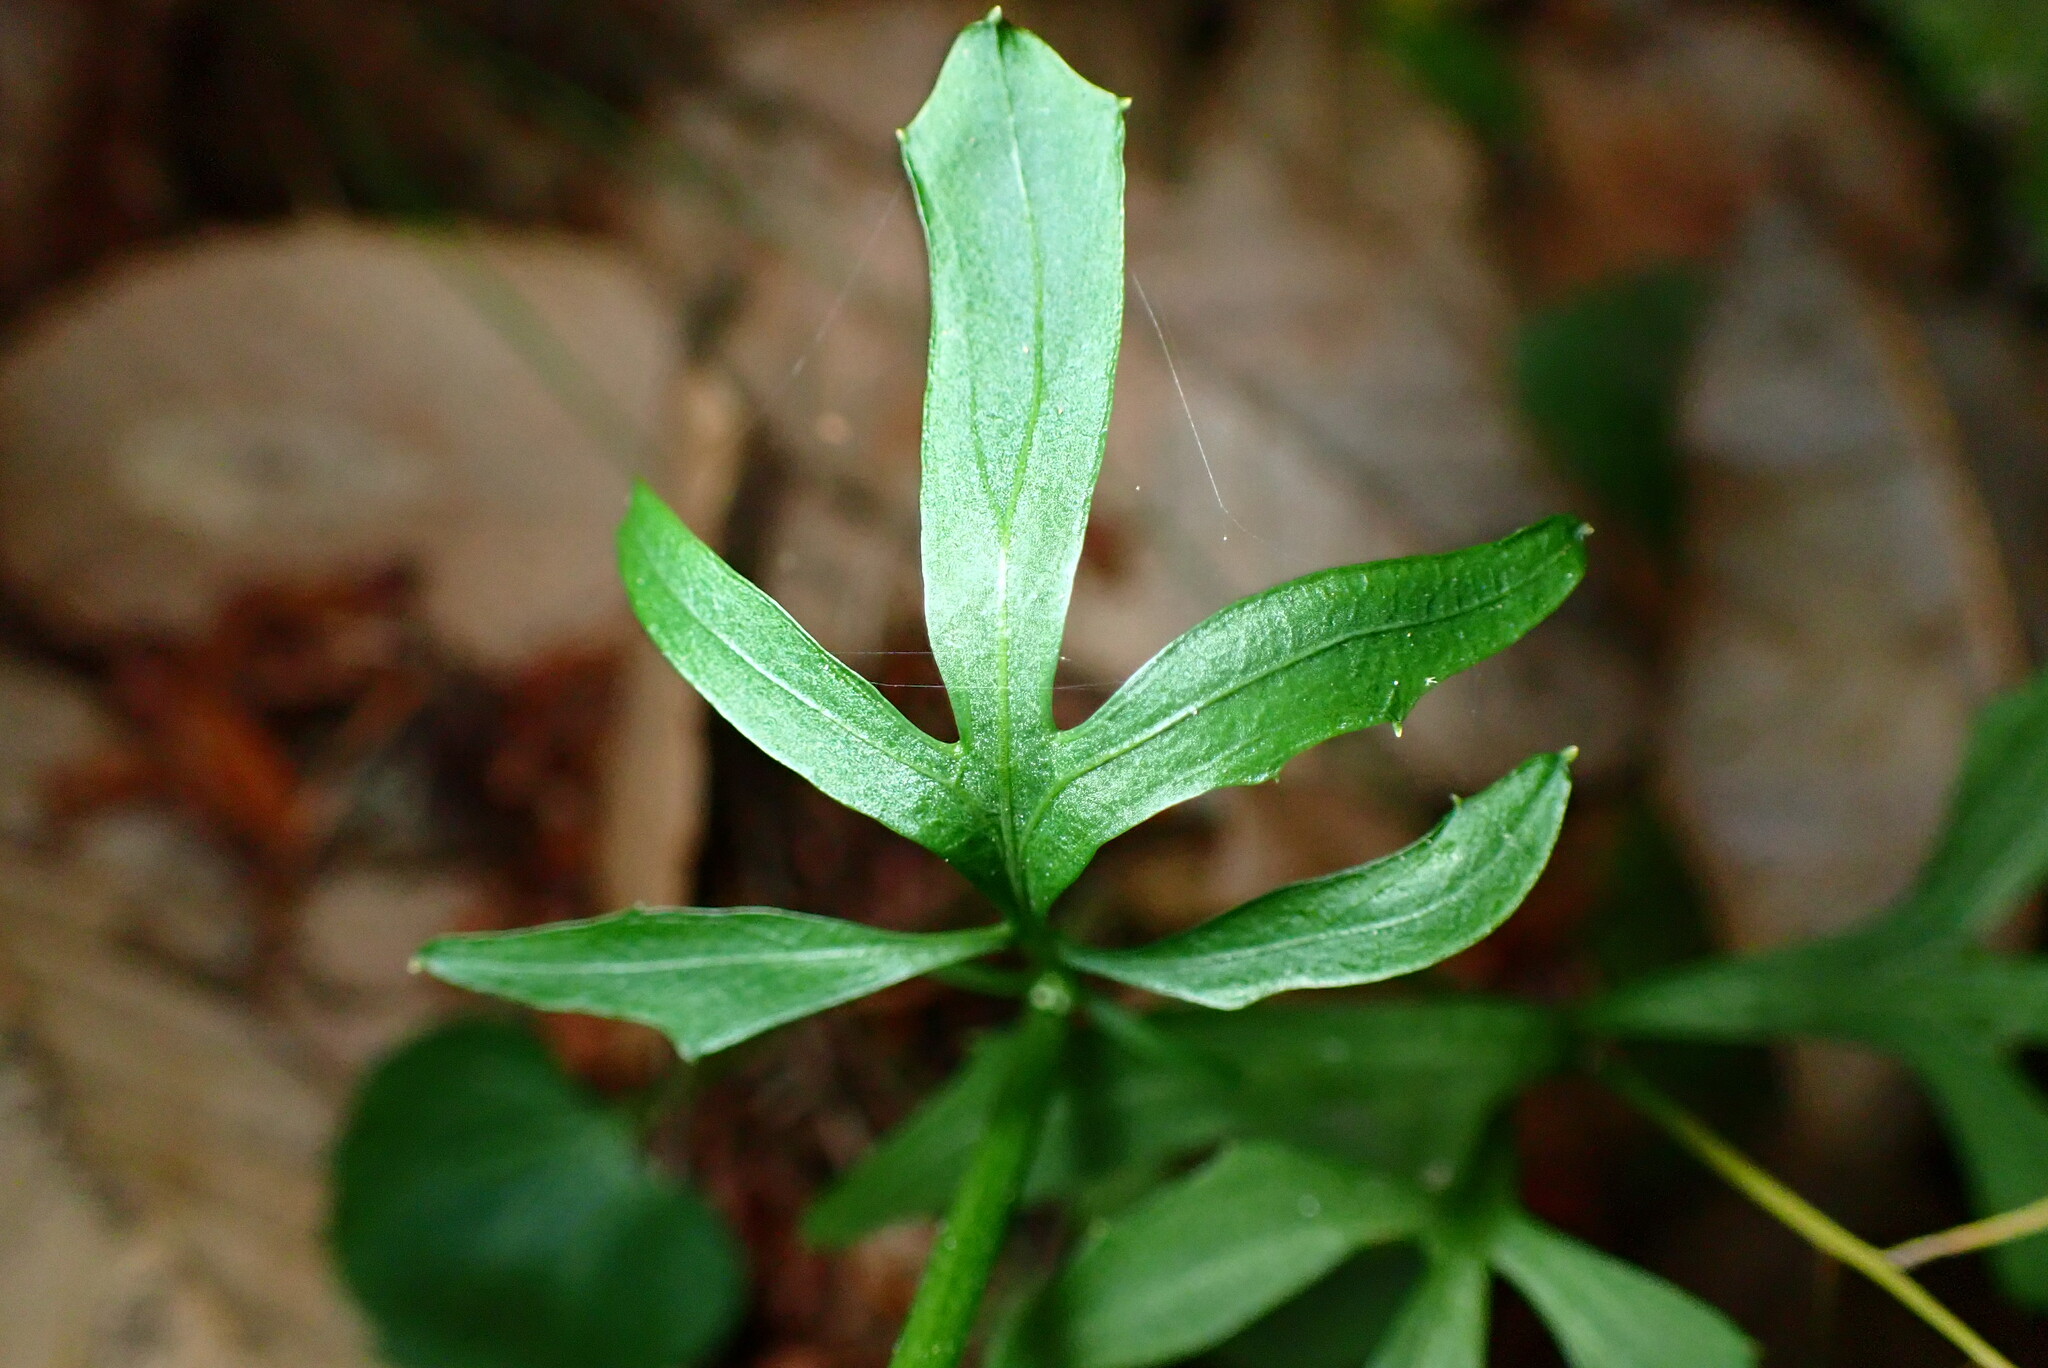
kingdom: Plantae
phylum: Tracheophyta
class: Magnoliopsida
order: Brassicales
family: Brassicaceae
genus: Cardamine
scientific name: Cardamine californica
